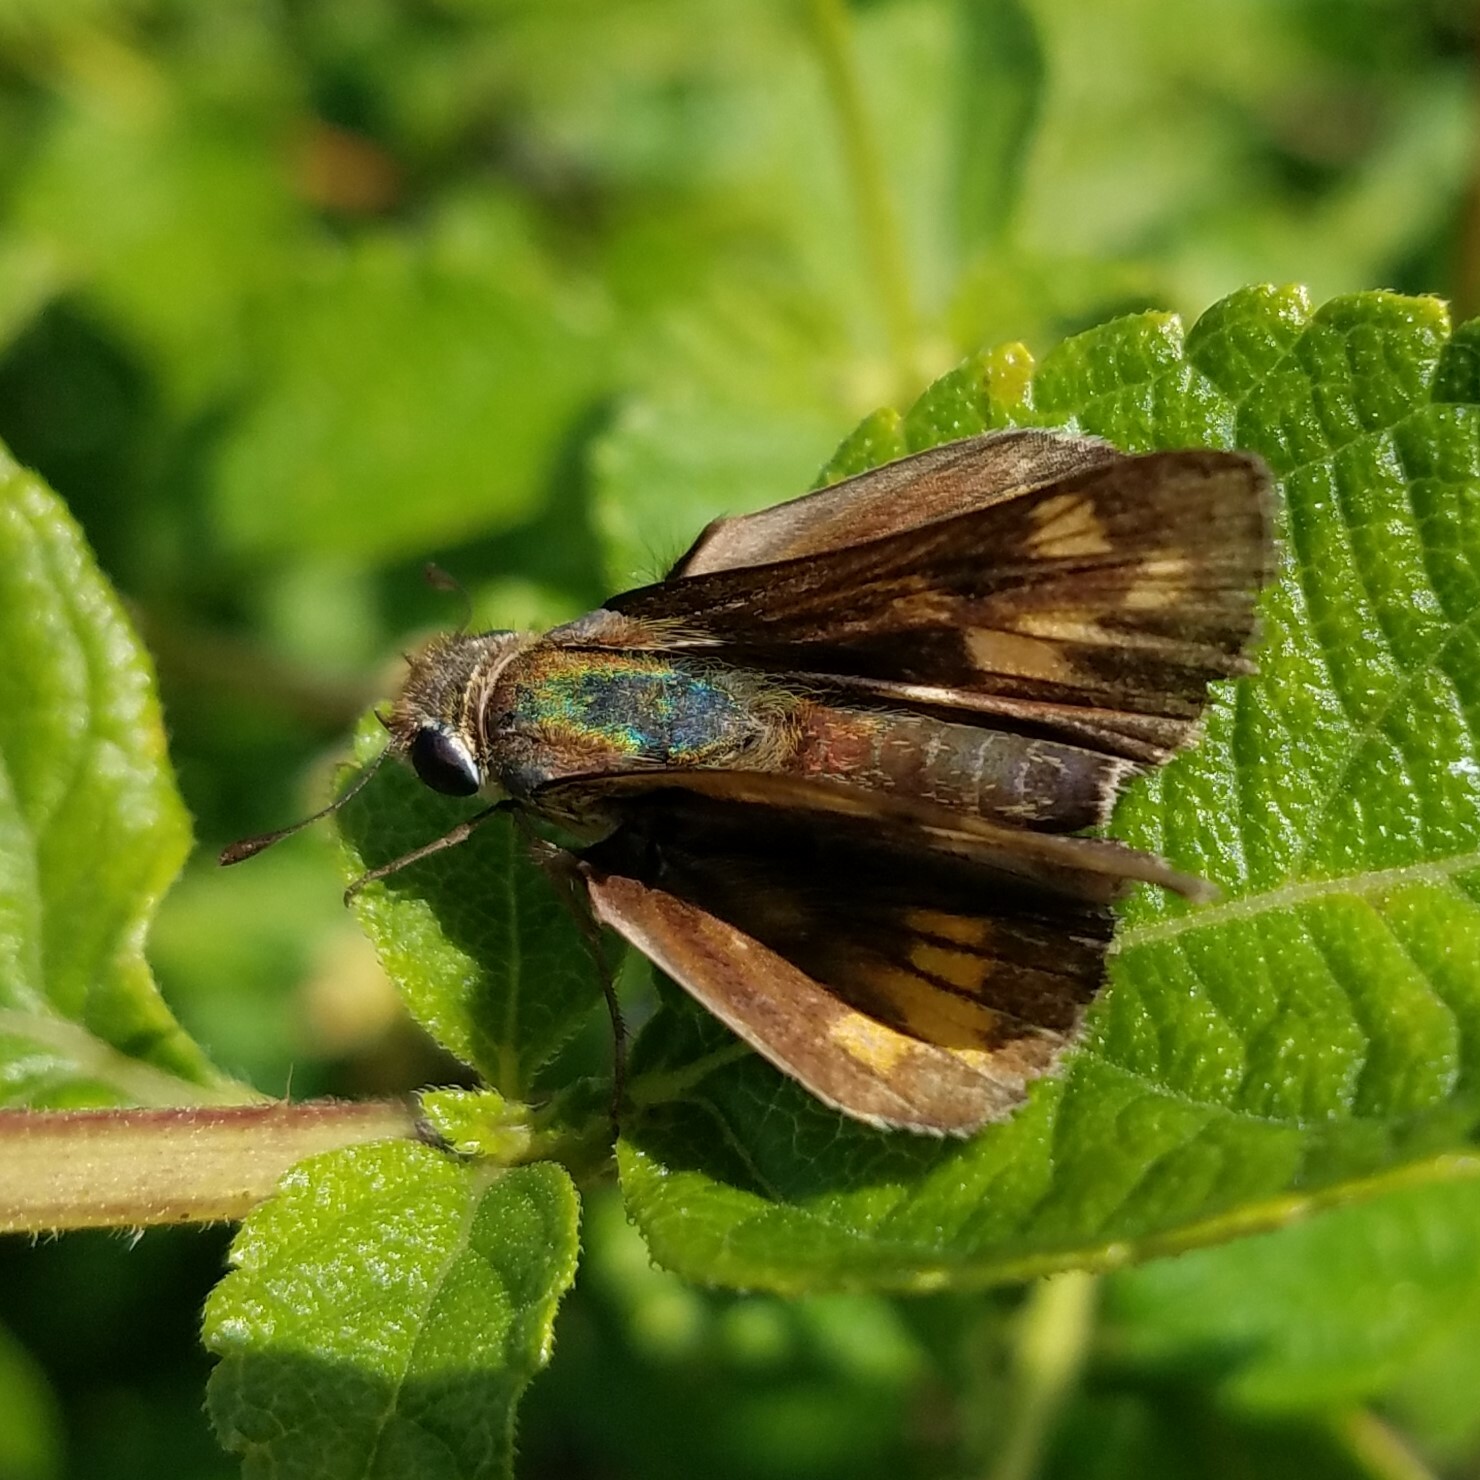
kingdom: Animalia
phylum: Arthropoda
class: Insecta
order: Lepidoptera
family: Hesperiidae
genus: Hylephila
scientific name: Hylephila phyleus
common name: Fiery skipper
